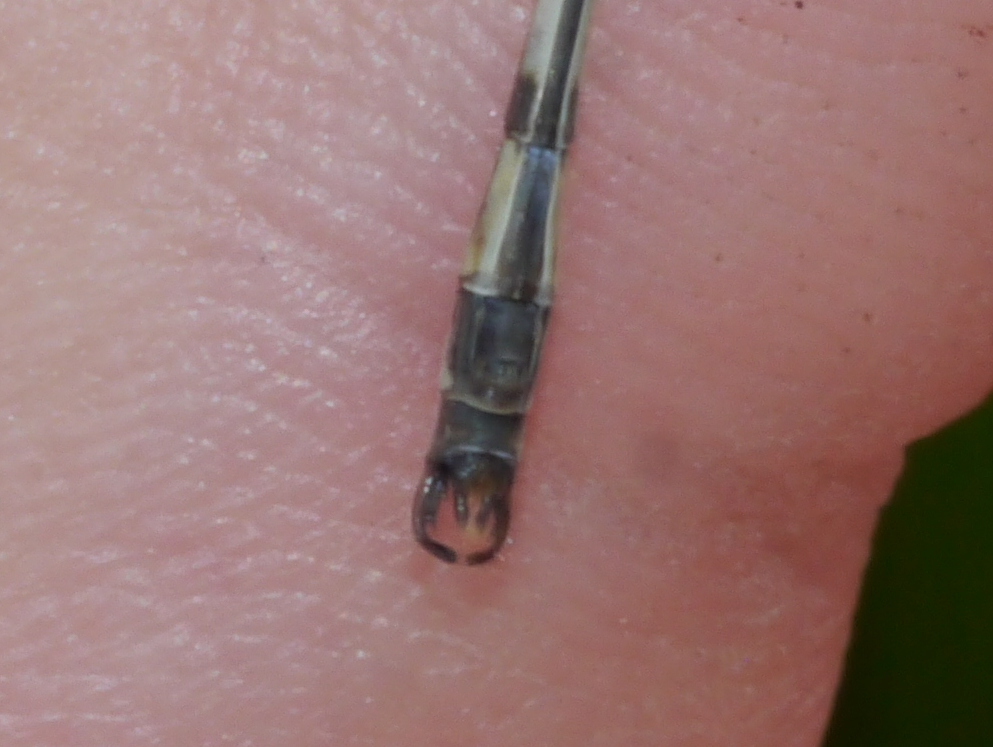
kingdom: Animalia
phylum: Arthropoda
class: Insecta
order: Odonata
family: Lestidae
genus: Lestes
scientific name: Lestes rectangularis
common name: Slender spreadwing
